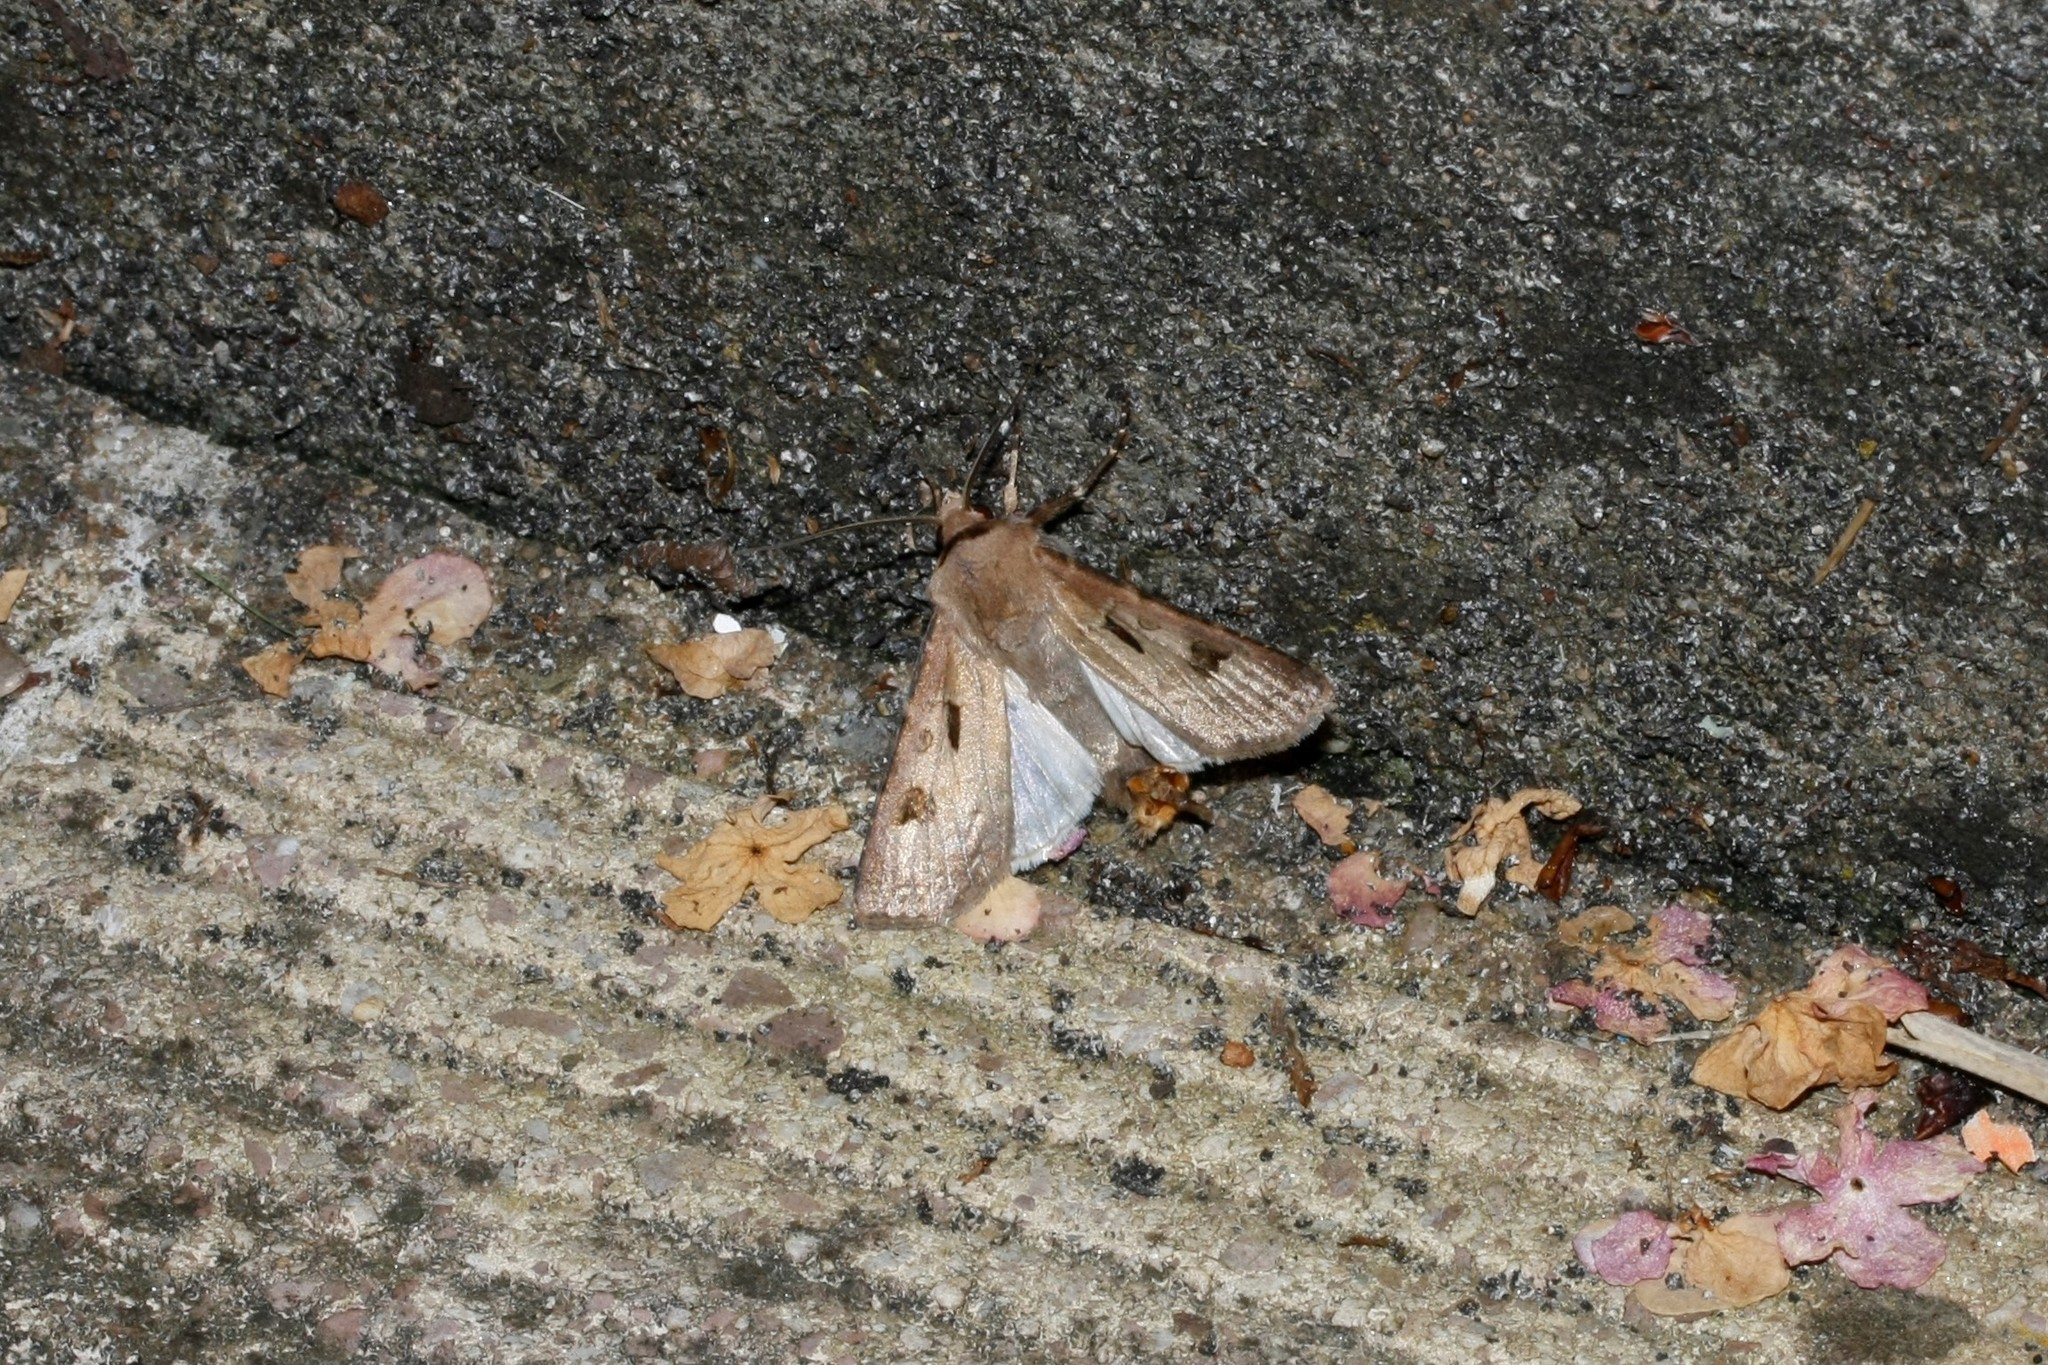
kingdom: Animalia
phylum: Arthropoda
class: Insecta
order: Lepidoptera
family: Noctuidae
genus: Agrotis
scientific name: Agrotis exclamationis
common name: Heart and dart
